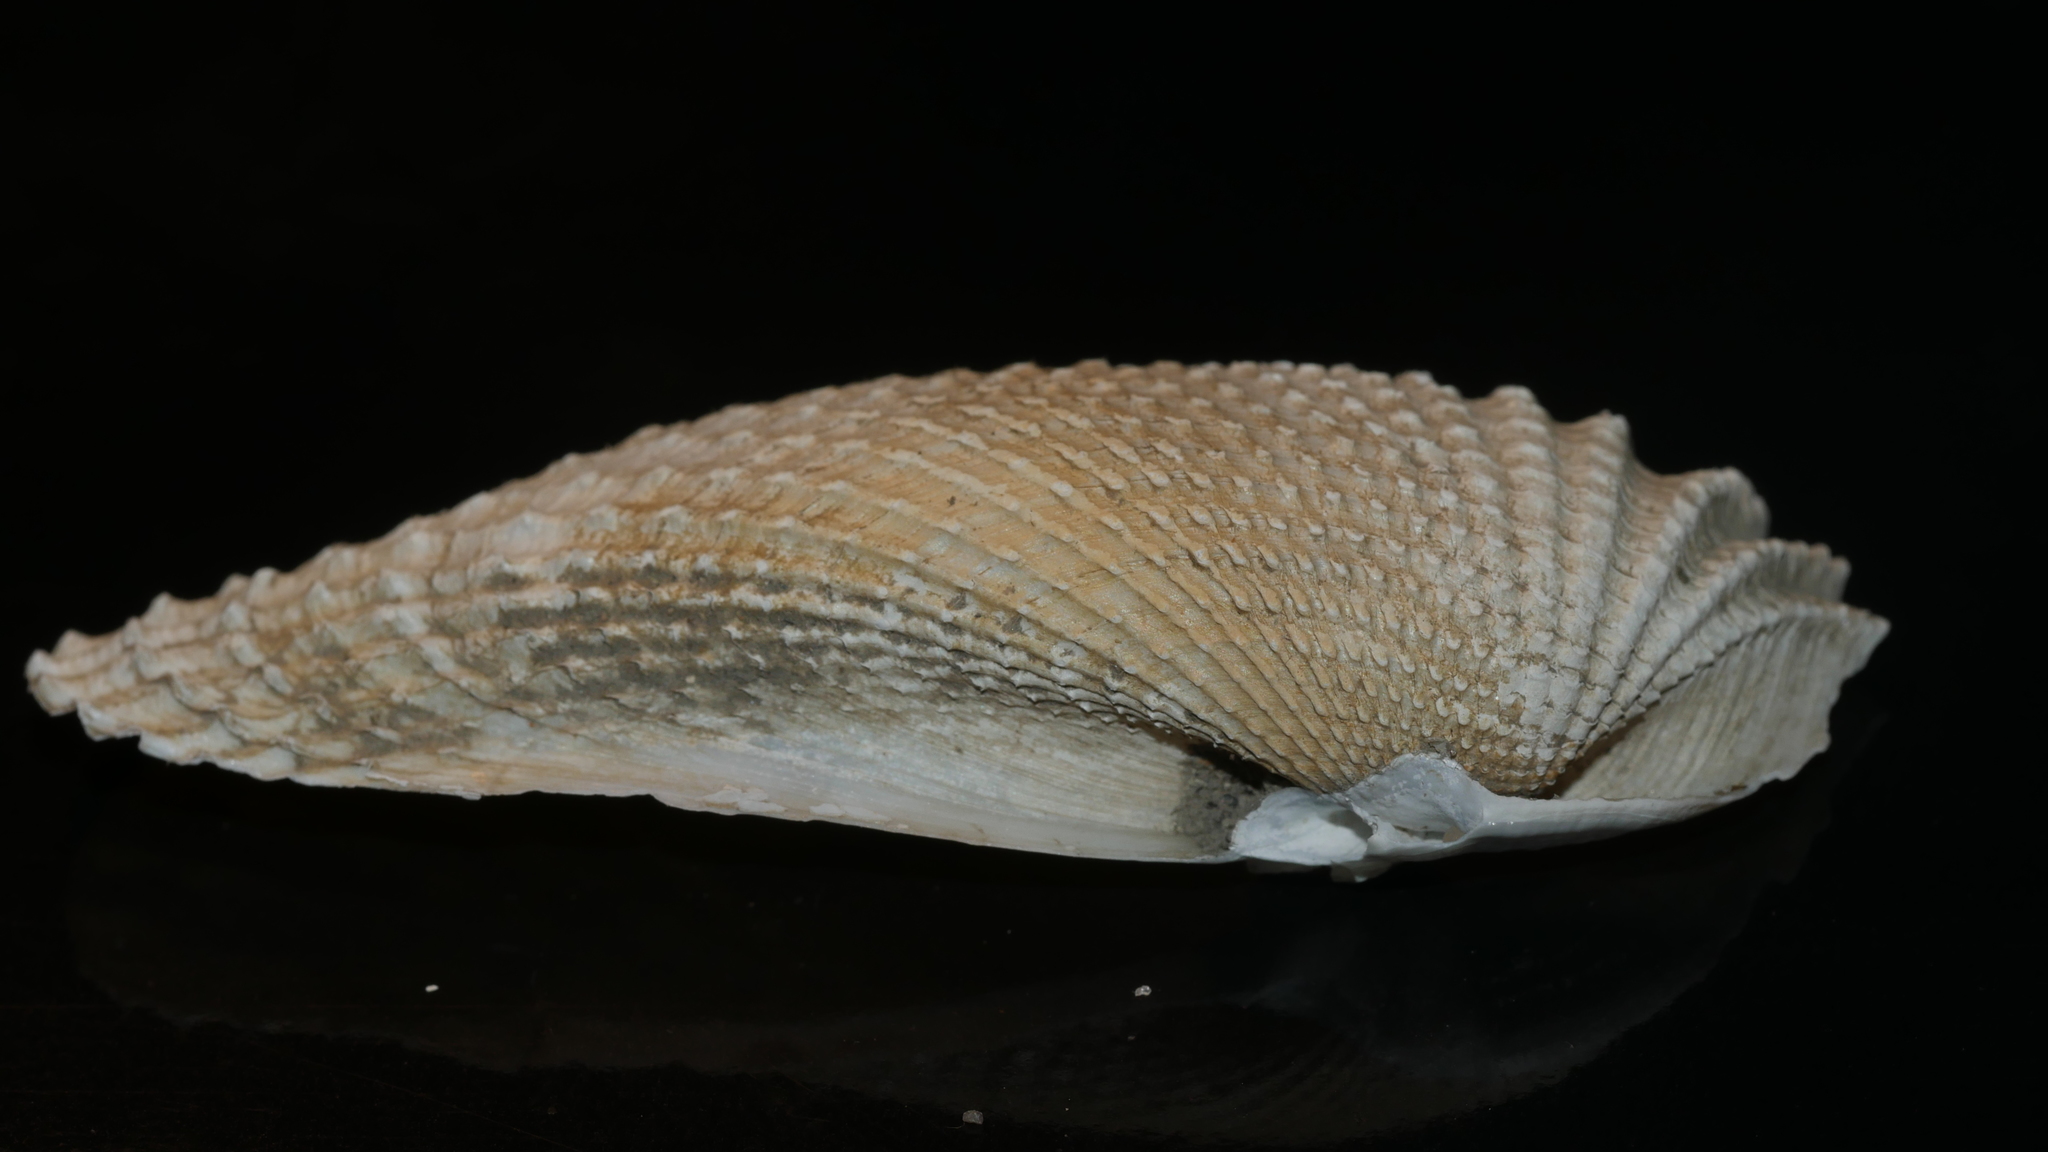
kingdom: Animalia
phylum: Mollusca
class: Bivalvia
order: Myida
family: Pholadidae
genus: Cyrtopleura
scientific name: Cyrtopleura costata
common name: Angel wing
